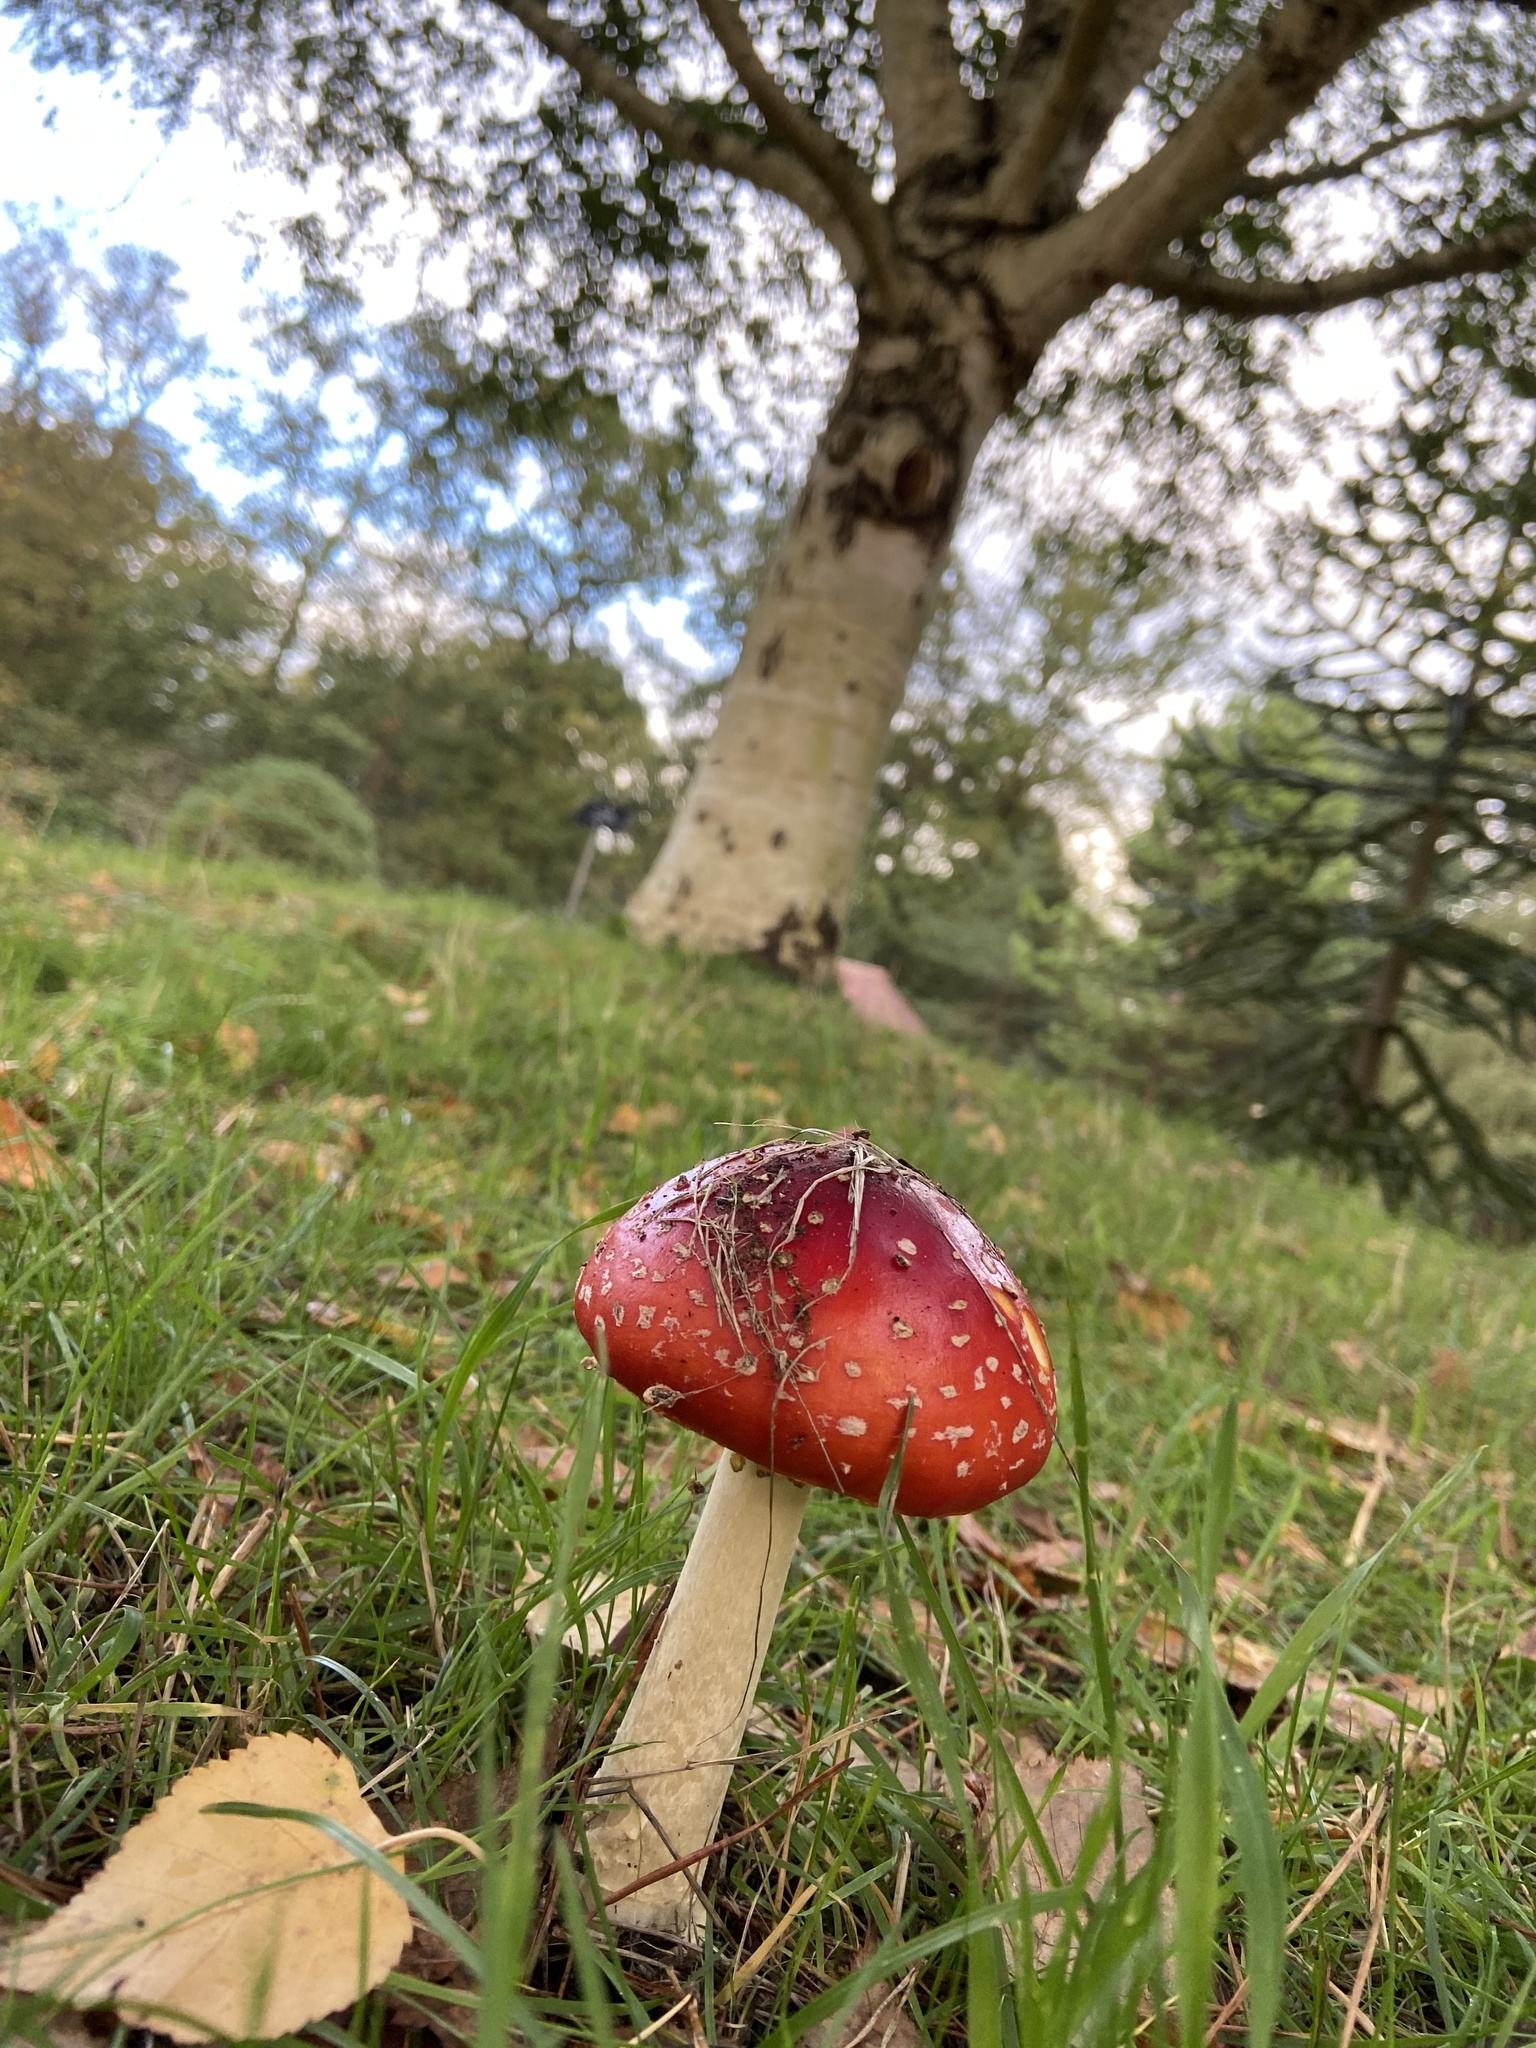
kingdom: Fungi
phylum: Basidiomycota
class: Agaricomycetes
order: Agaricales
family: Amanitaceae
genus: Amanita
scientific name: Amanita muscaria
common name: Fly agaric
